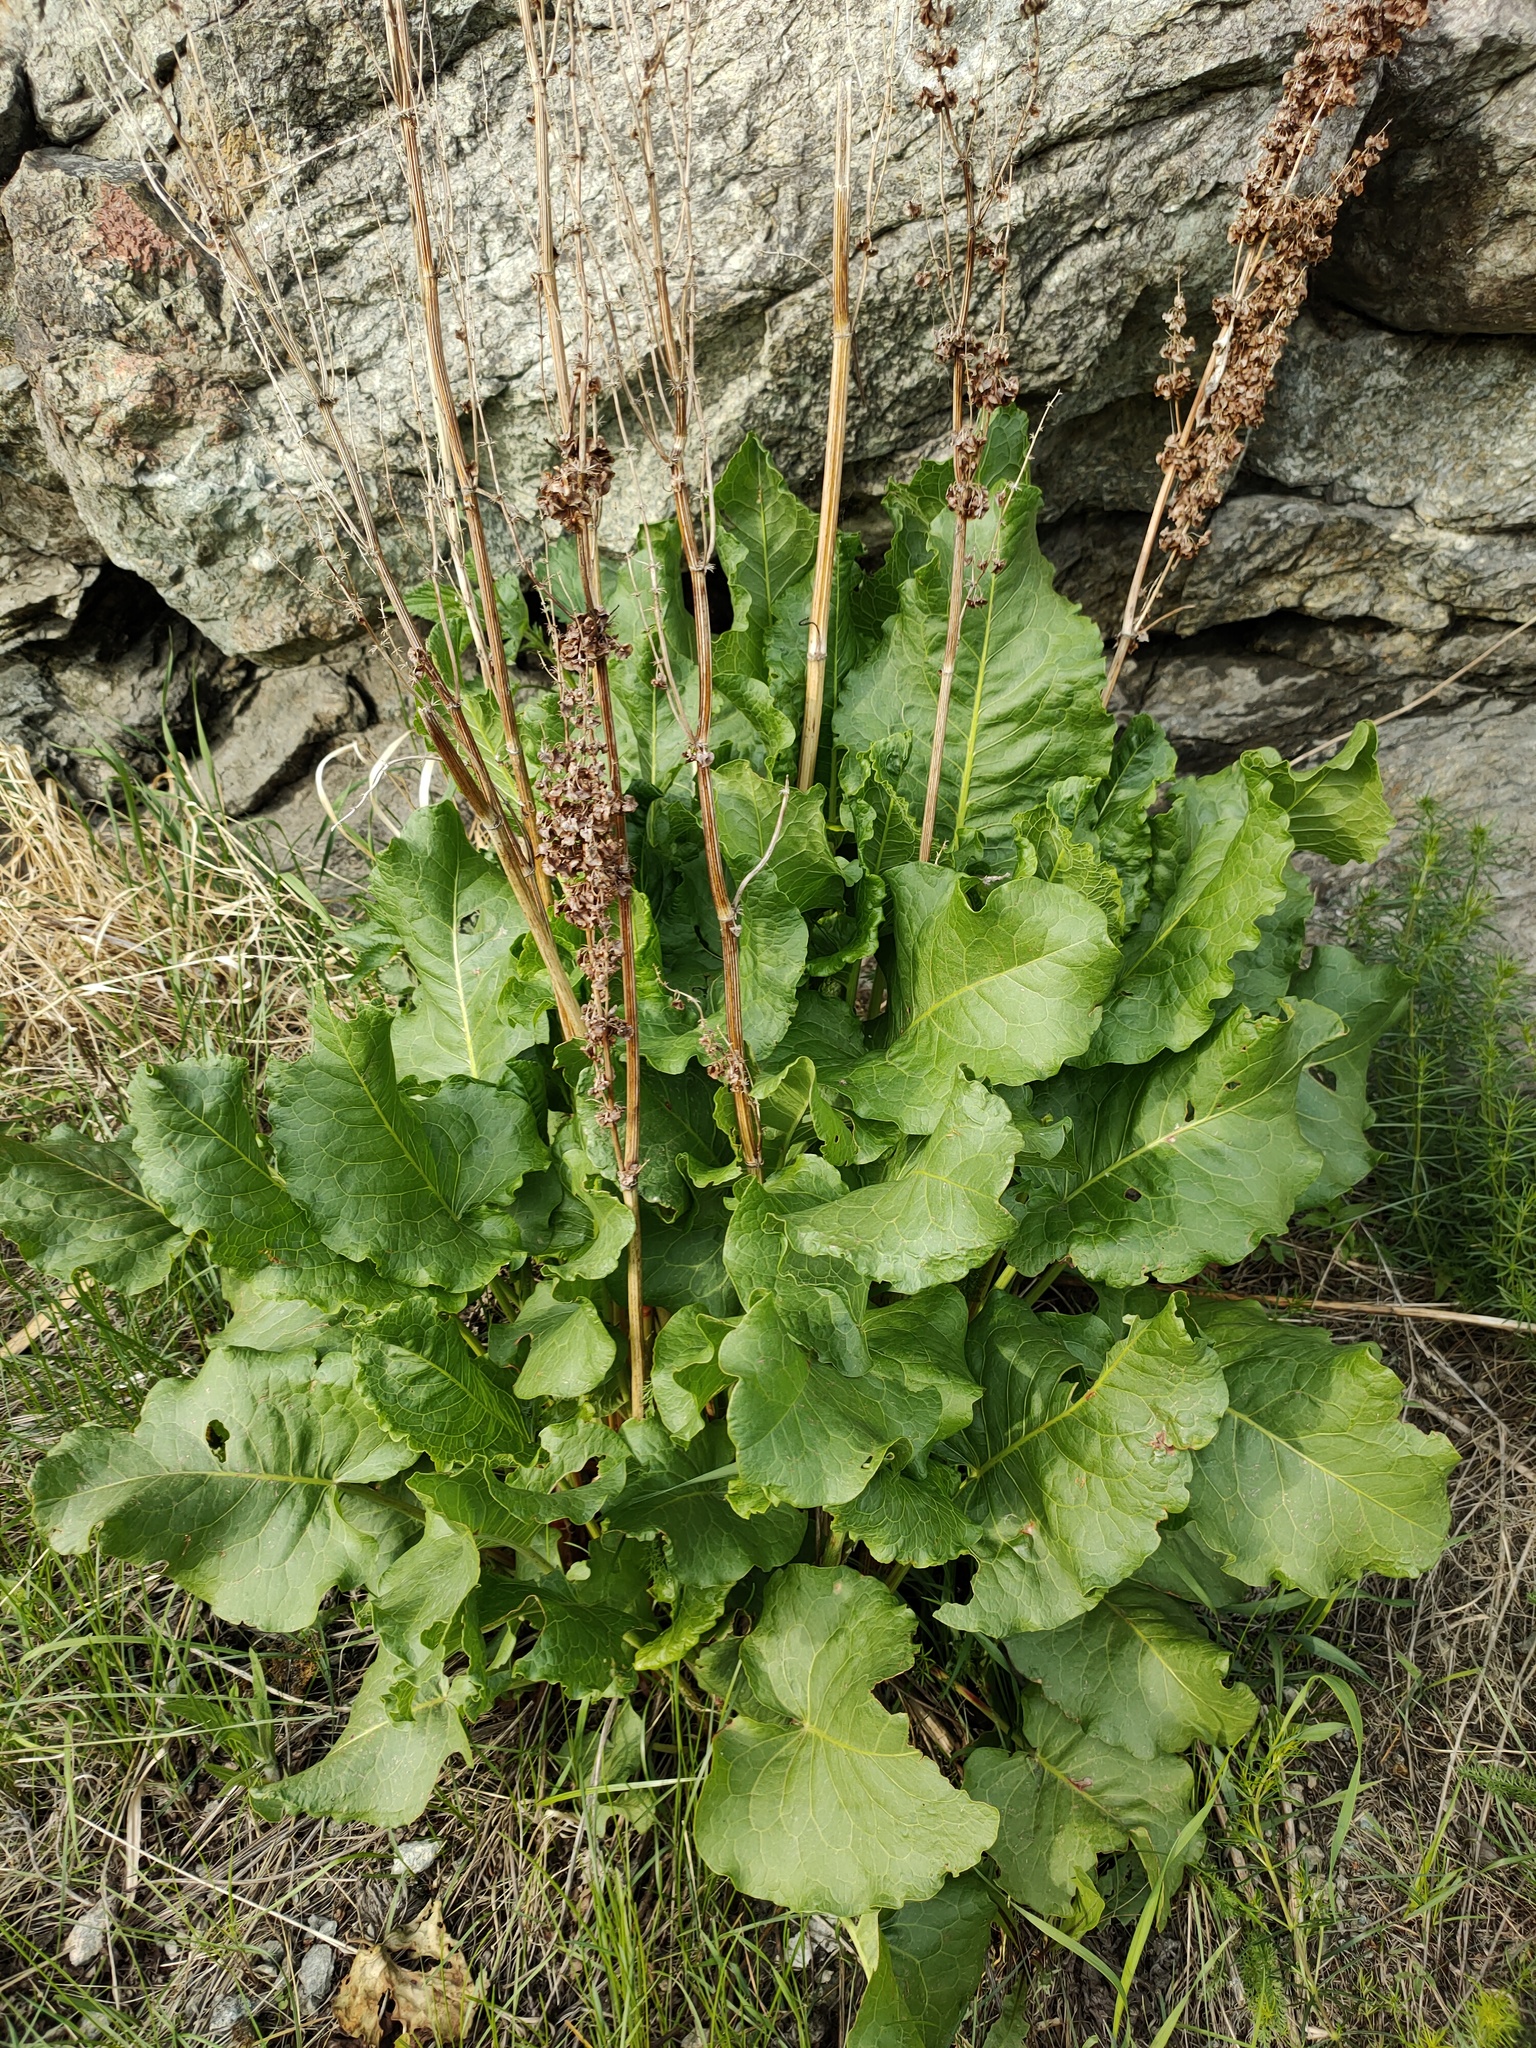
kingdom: Plantae
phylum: Tracheophyta
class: Magnoliopsida
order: Caryophyllales
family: Polygonaceae
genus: Rumex
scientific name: Rumex confertus
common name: Russian dock
